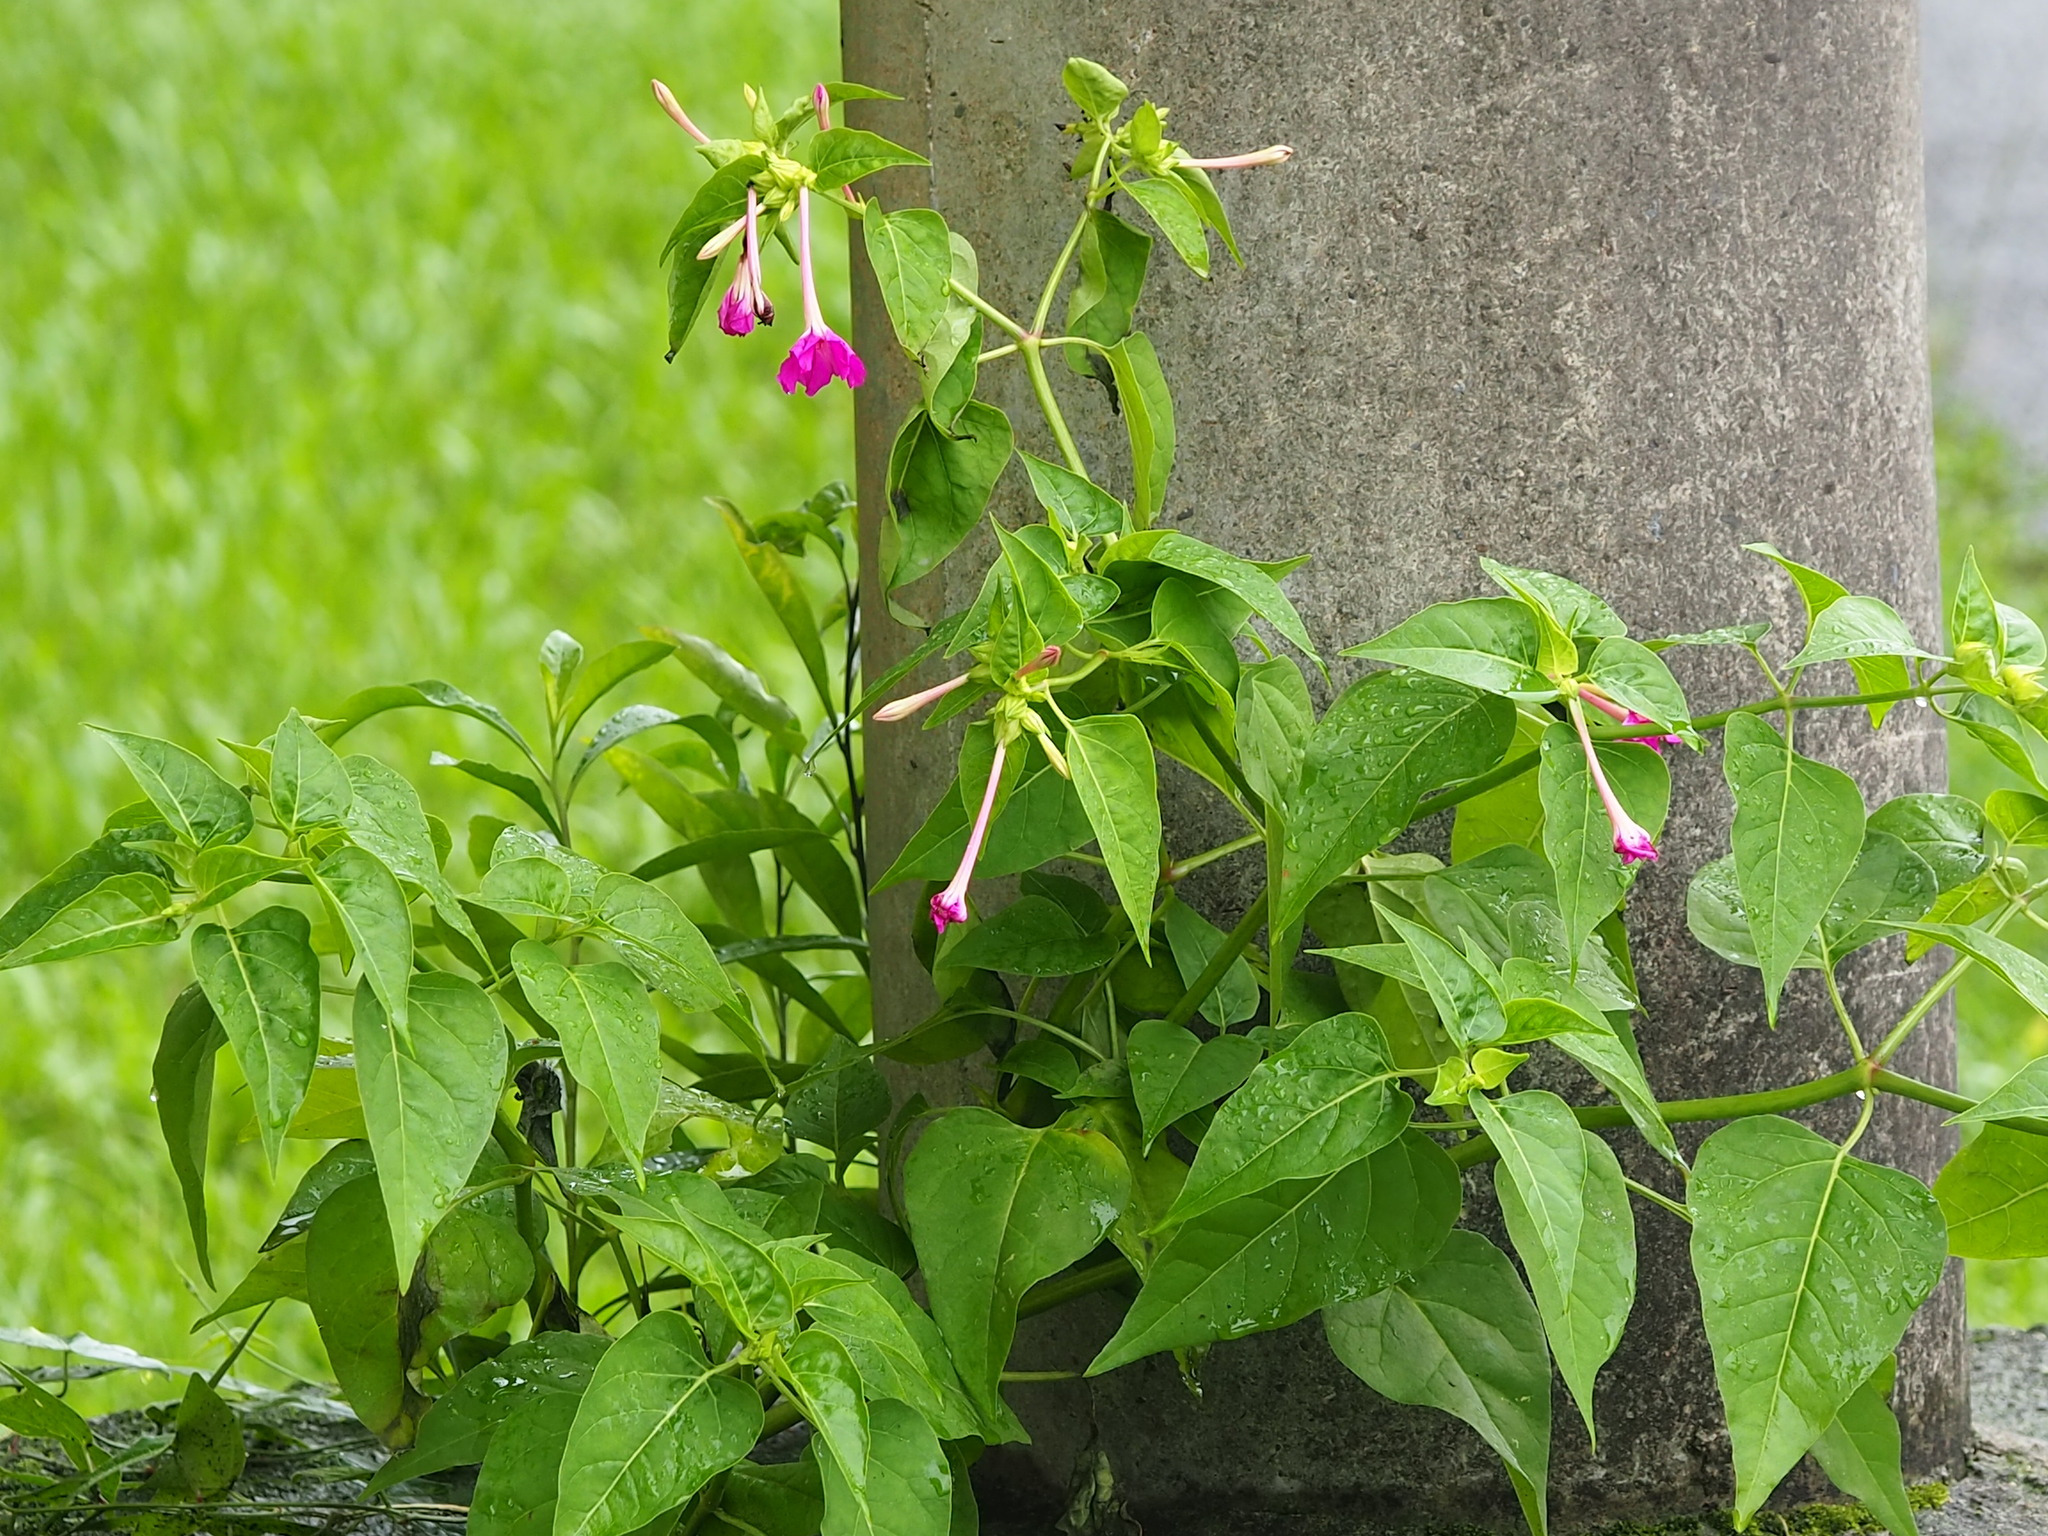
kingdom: Plantae
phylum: Tracheophyta
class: Magnoliopsida
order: Caryophyllales
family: Nyctaginaceae
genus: Mirabilis
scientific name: Mirabilis jalapa
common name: Marvel-of-peru
